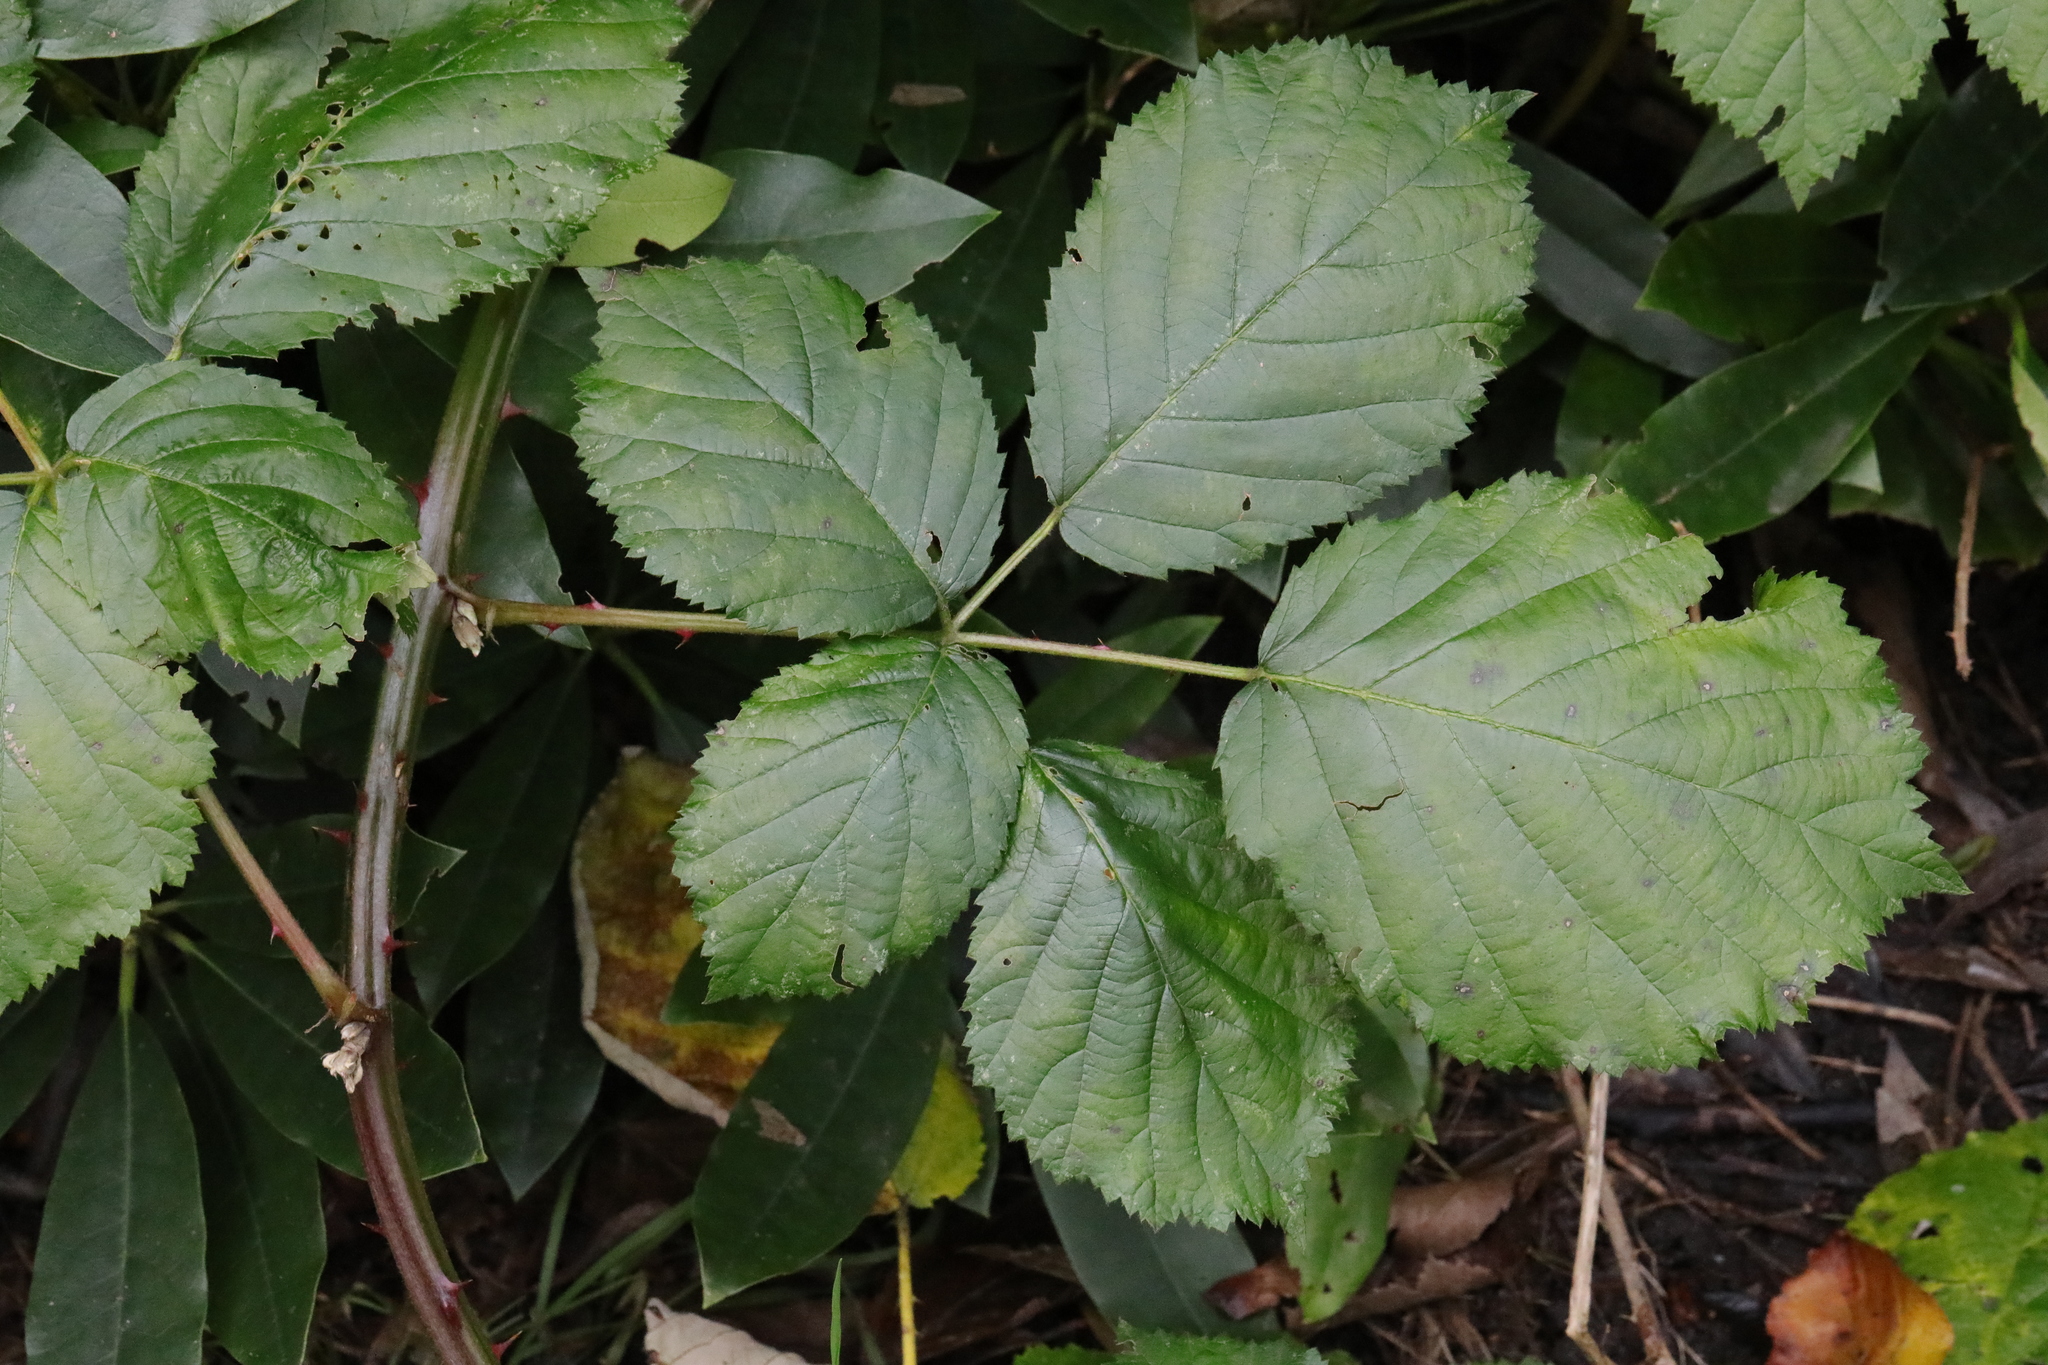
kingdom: Plantae
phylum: Tracheophyta
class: Magnoliopsida
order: Rosales
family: Rosaceae
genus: Rubus
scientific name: Rubus armeniacus
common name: Himalayan blackberry
